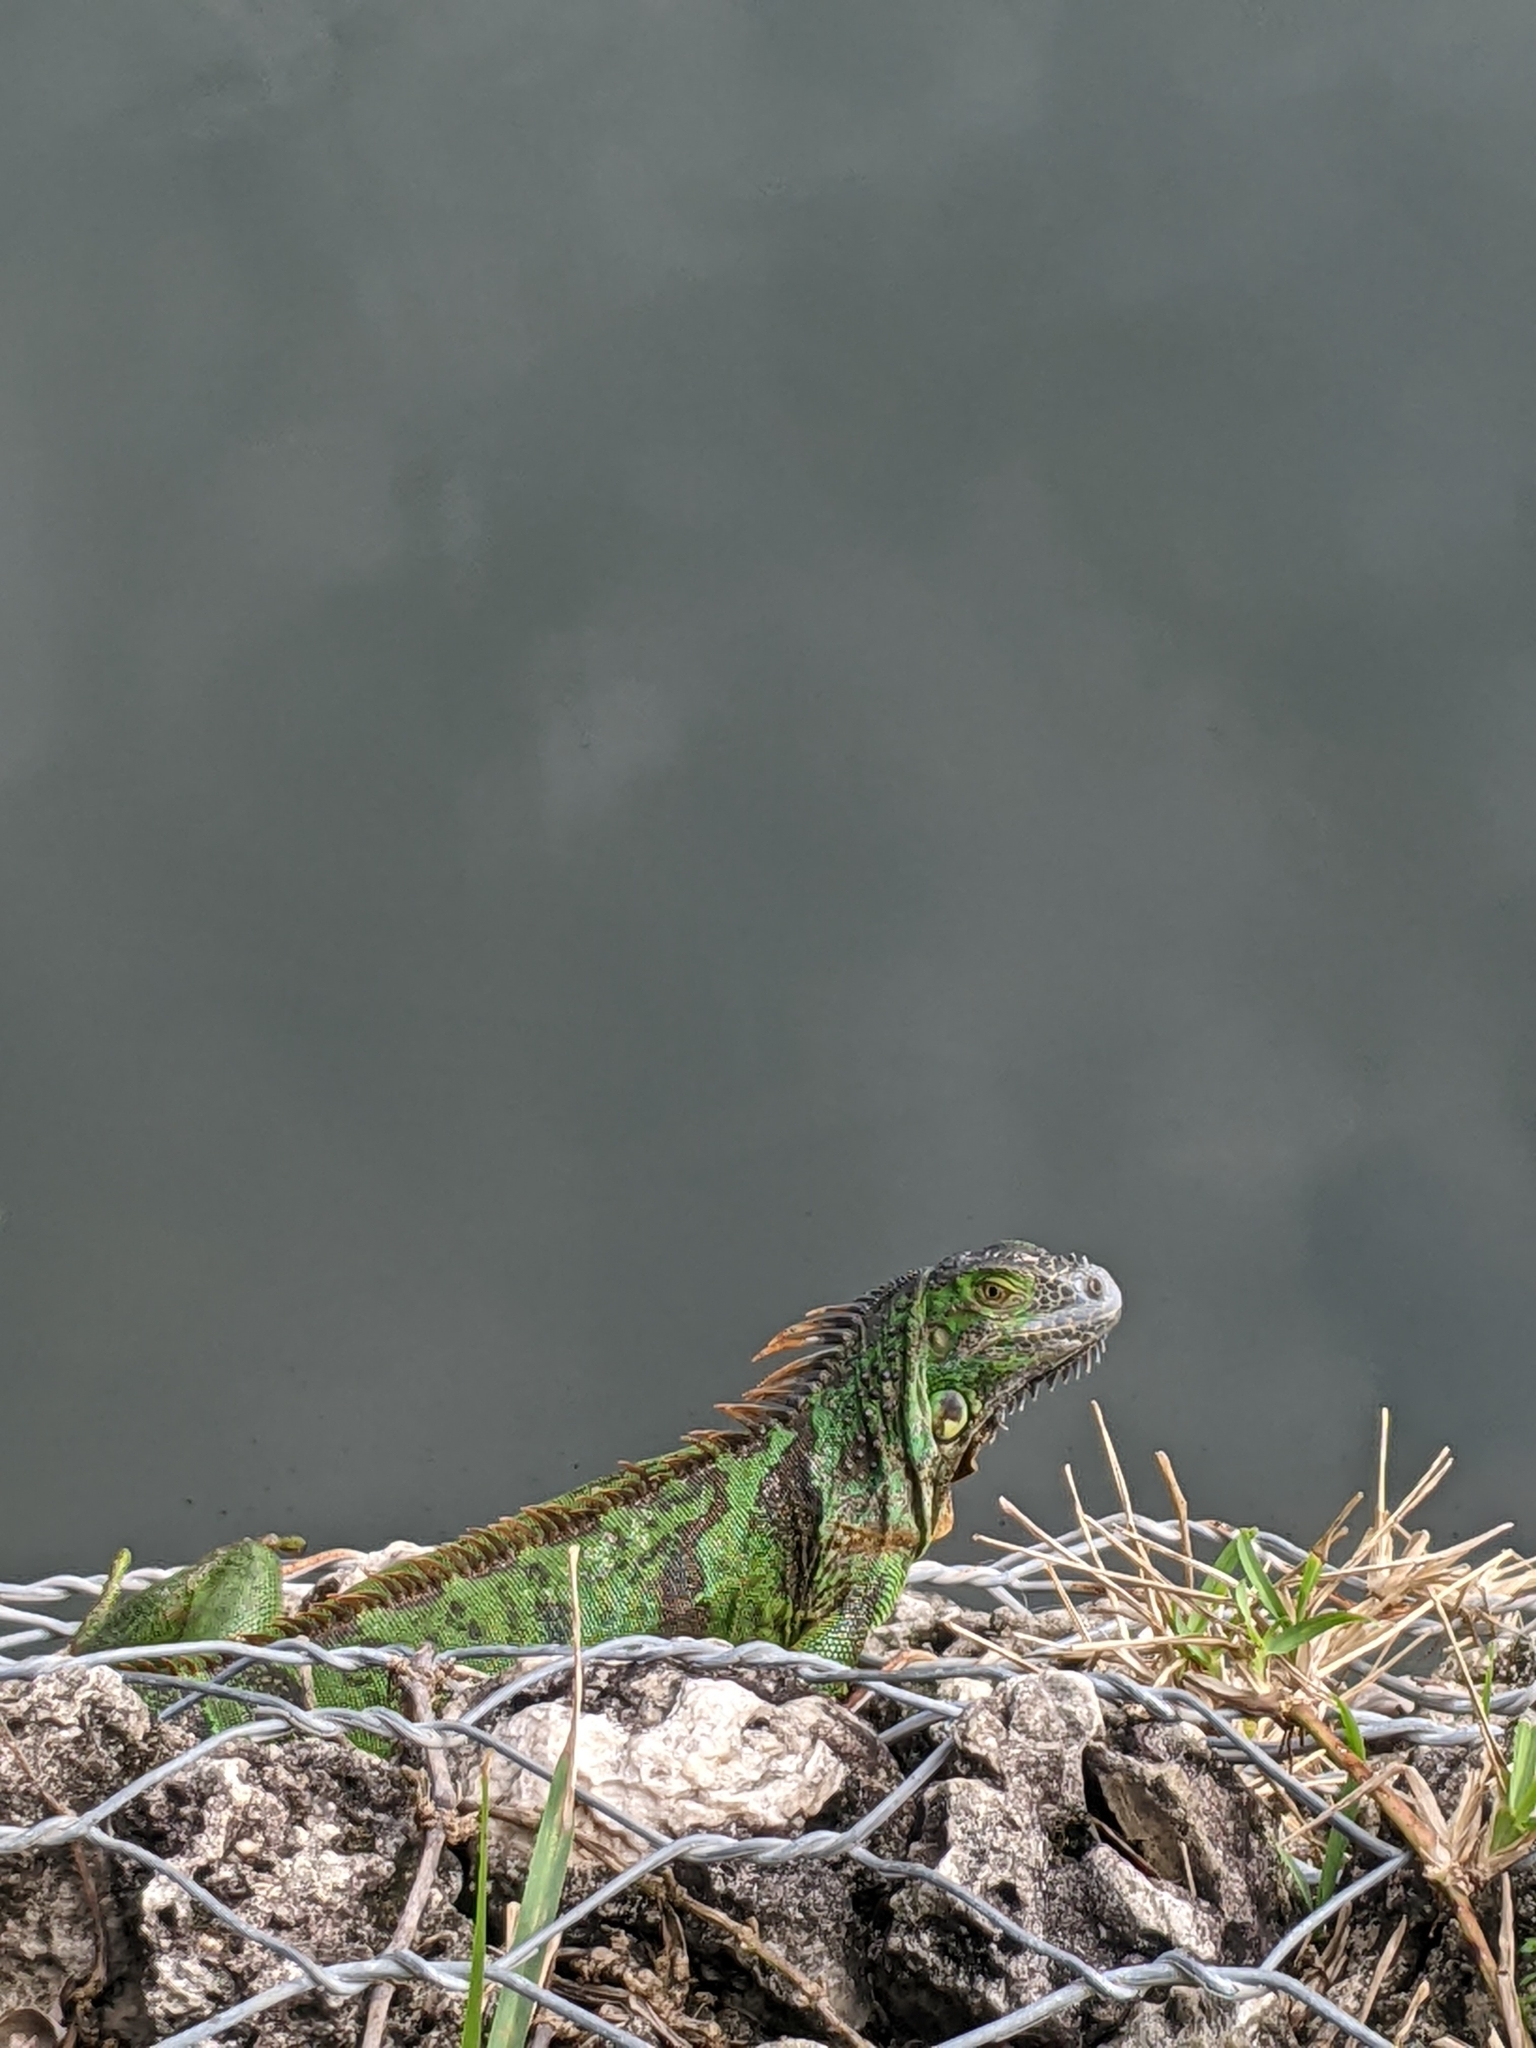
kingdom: Animalia
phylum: Chordata
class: Squamata
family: Iguanidae
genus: Iguana
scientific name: Iguana iguana
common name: Green iguana
